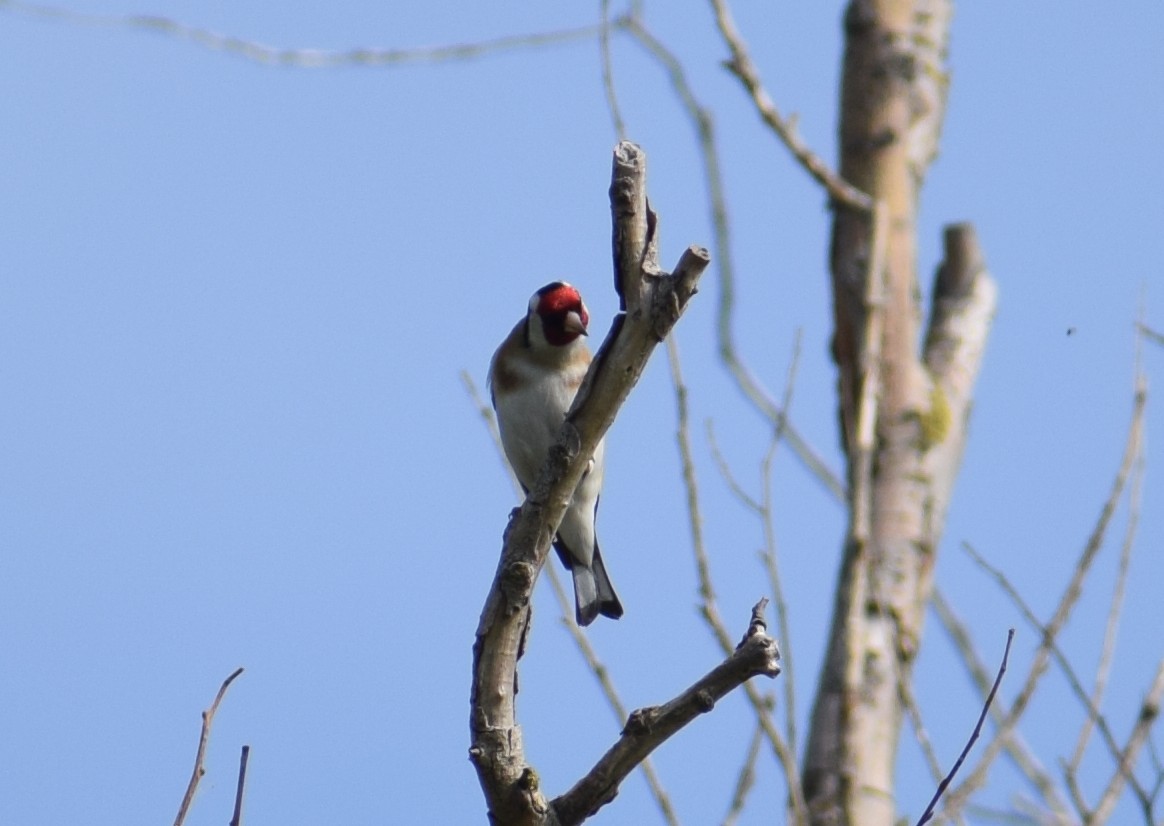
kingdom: Animalia
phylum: Chordata
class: Aves
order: Passeriformes
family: Fringillidae
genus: Carduelis
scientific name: Carduelis carduelis
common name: European goldfinch
